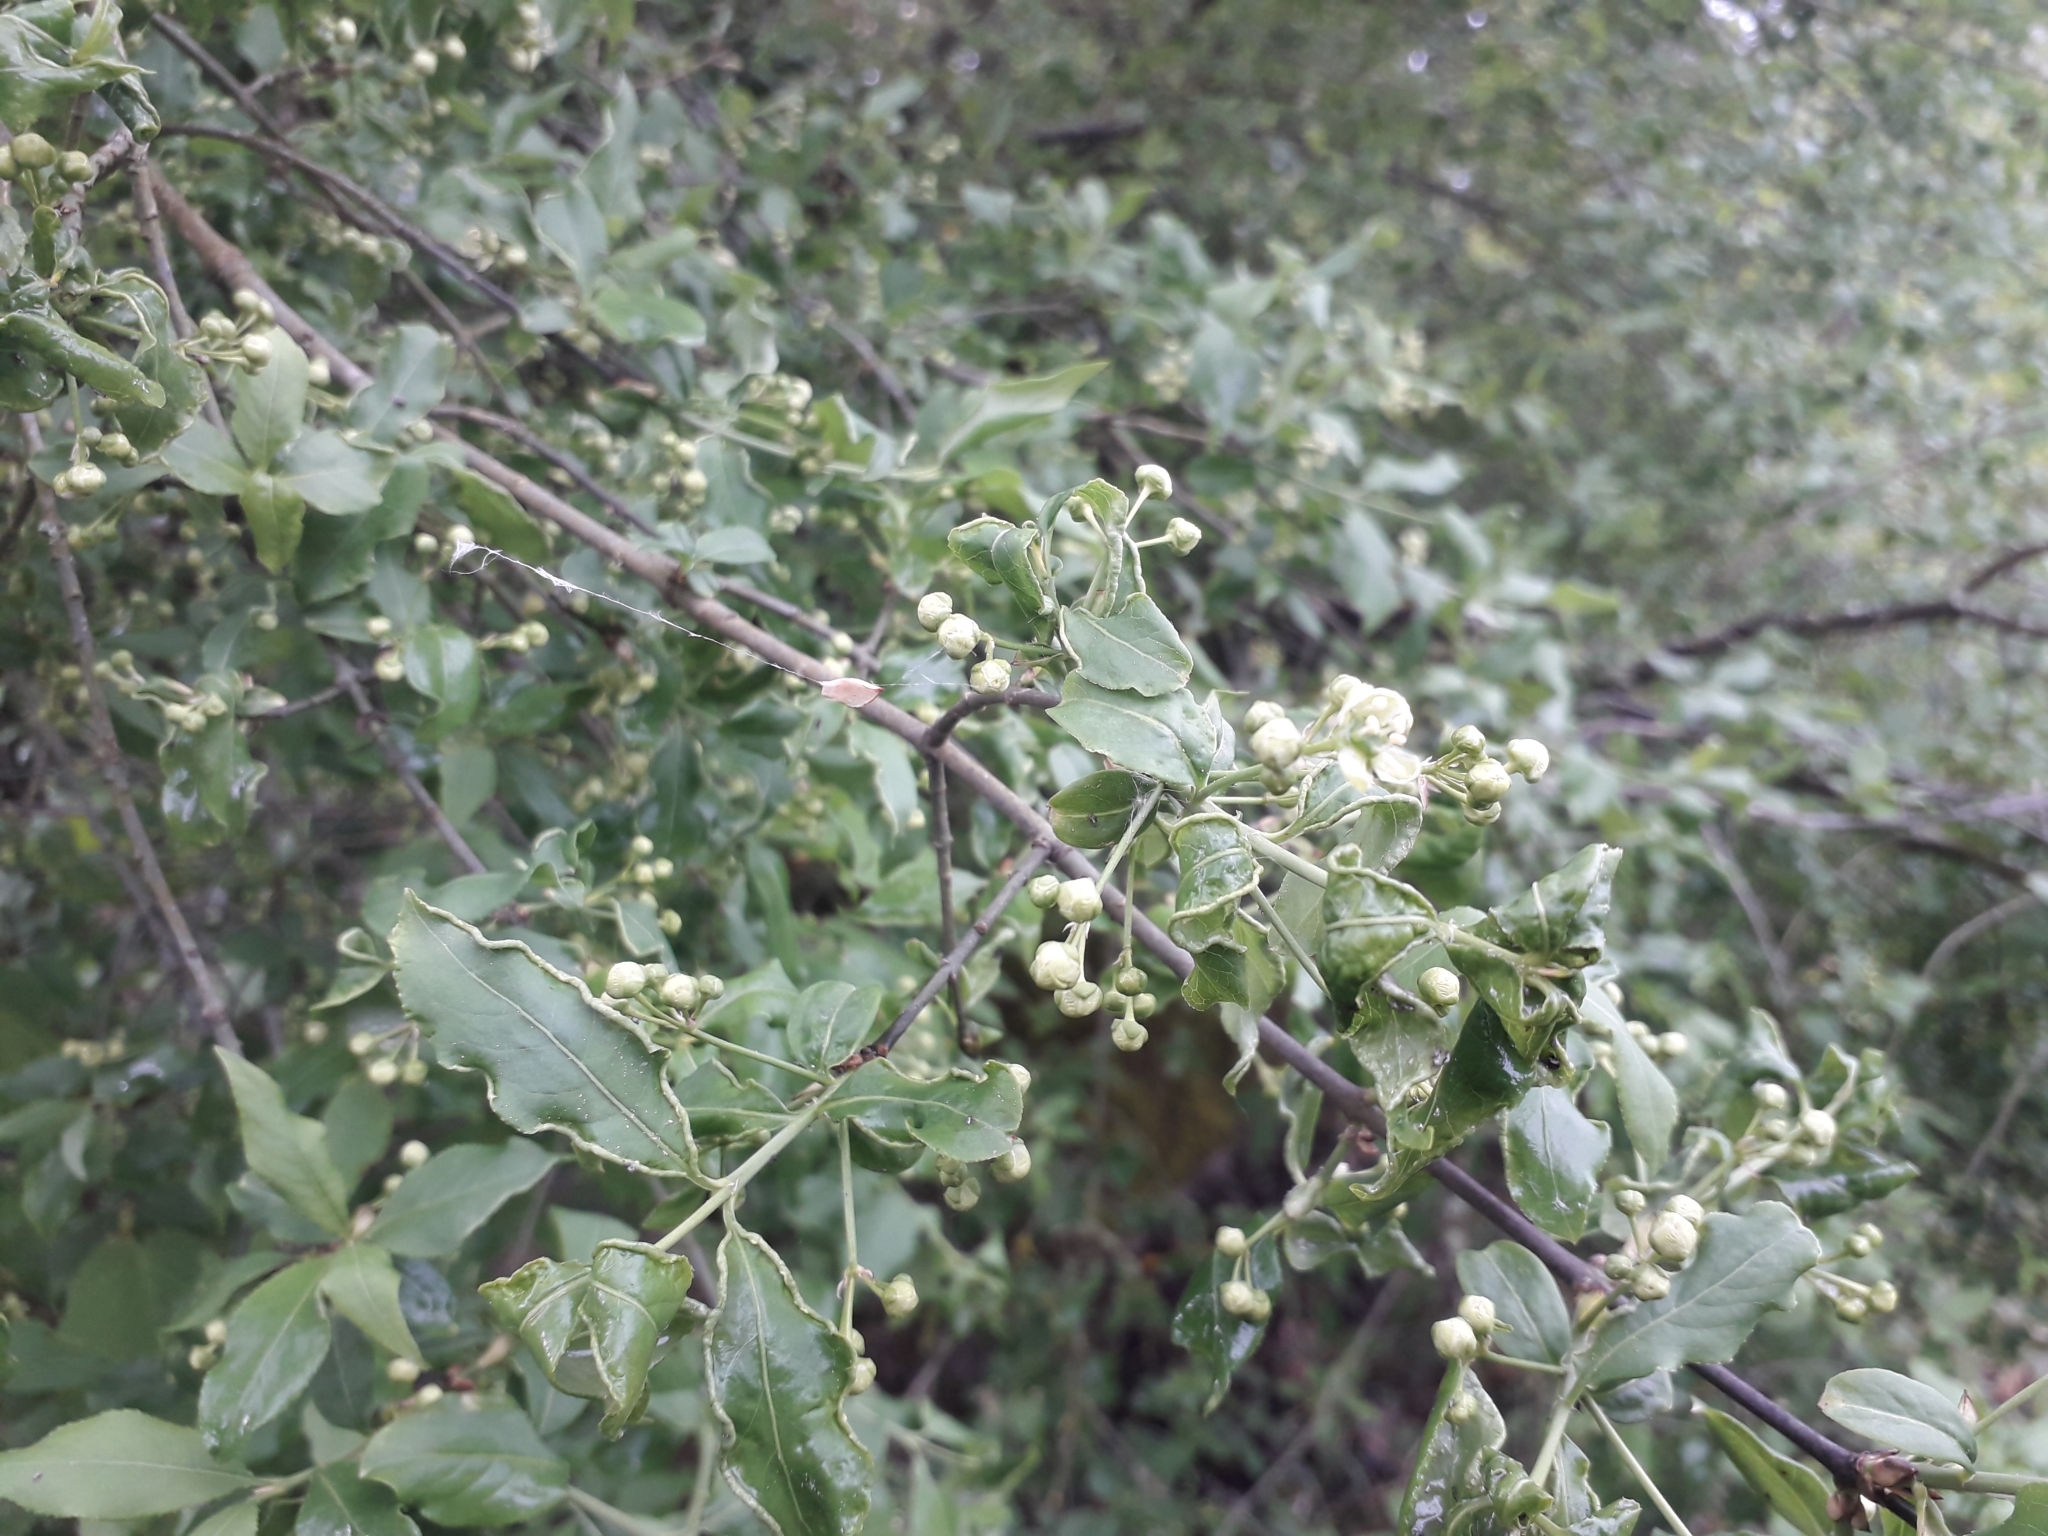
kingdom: Plantae
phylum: Tracheophyta
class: Magnoliopsida
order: Celastrales
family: Celastraceae
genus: Euonymus
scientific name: Euonymus europaeus
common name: Spindle
